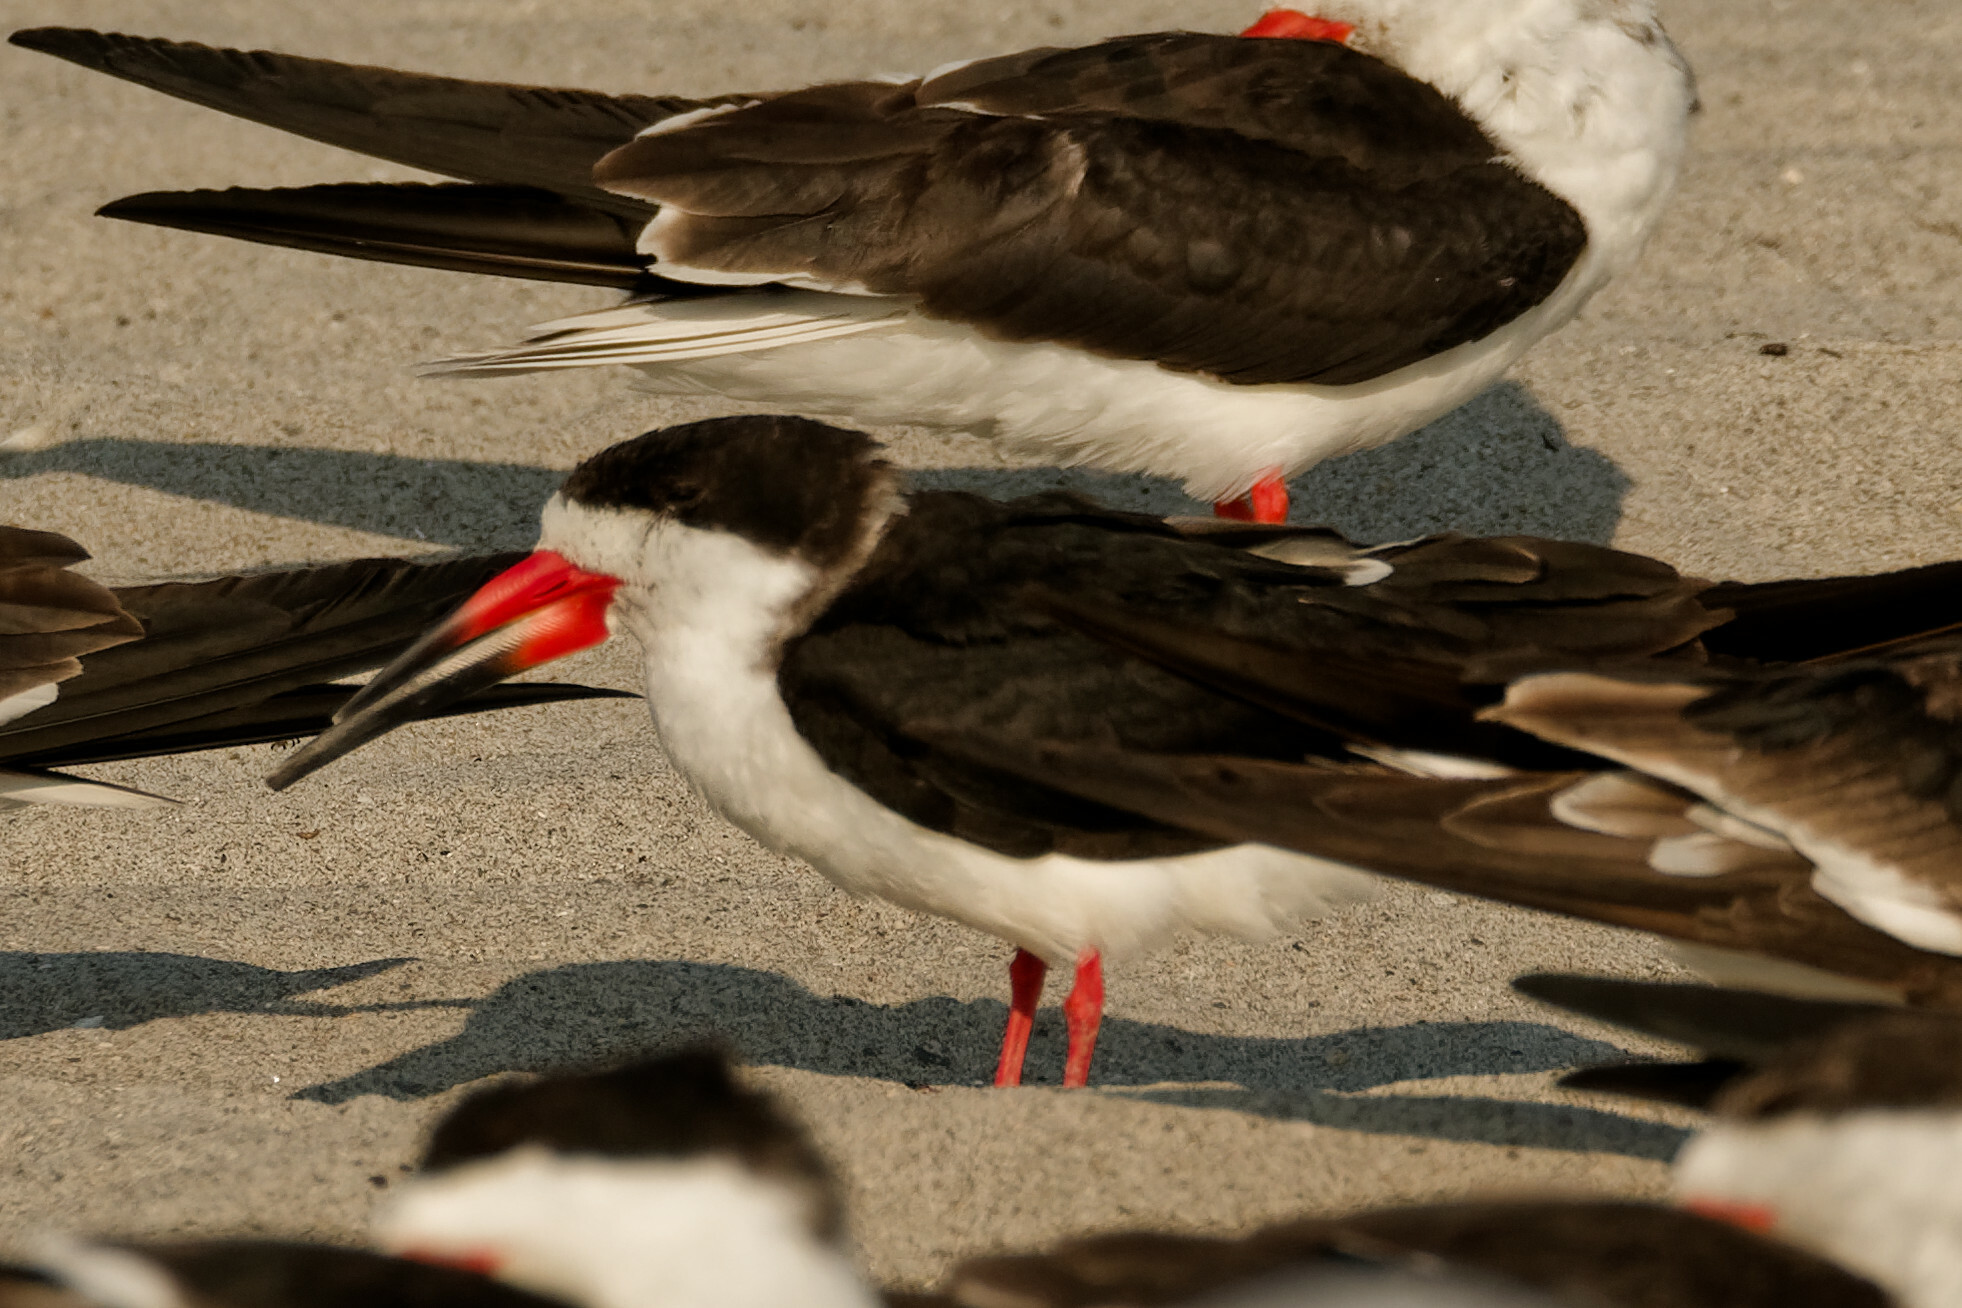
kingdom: Animalia
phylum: Chordata
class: Aves
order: Charadriiformes
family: Laridae
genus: Rynchops
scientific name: Rynchops niger
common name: Black skimmer
